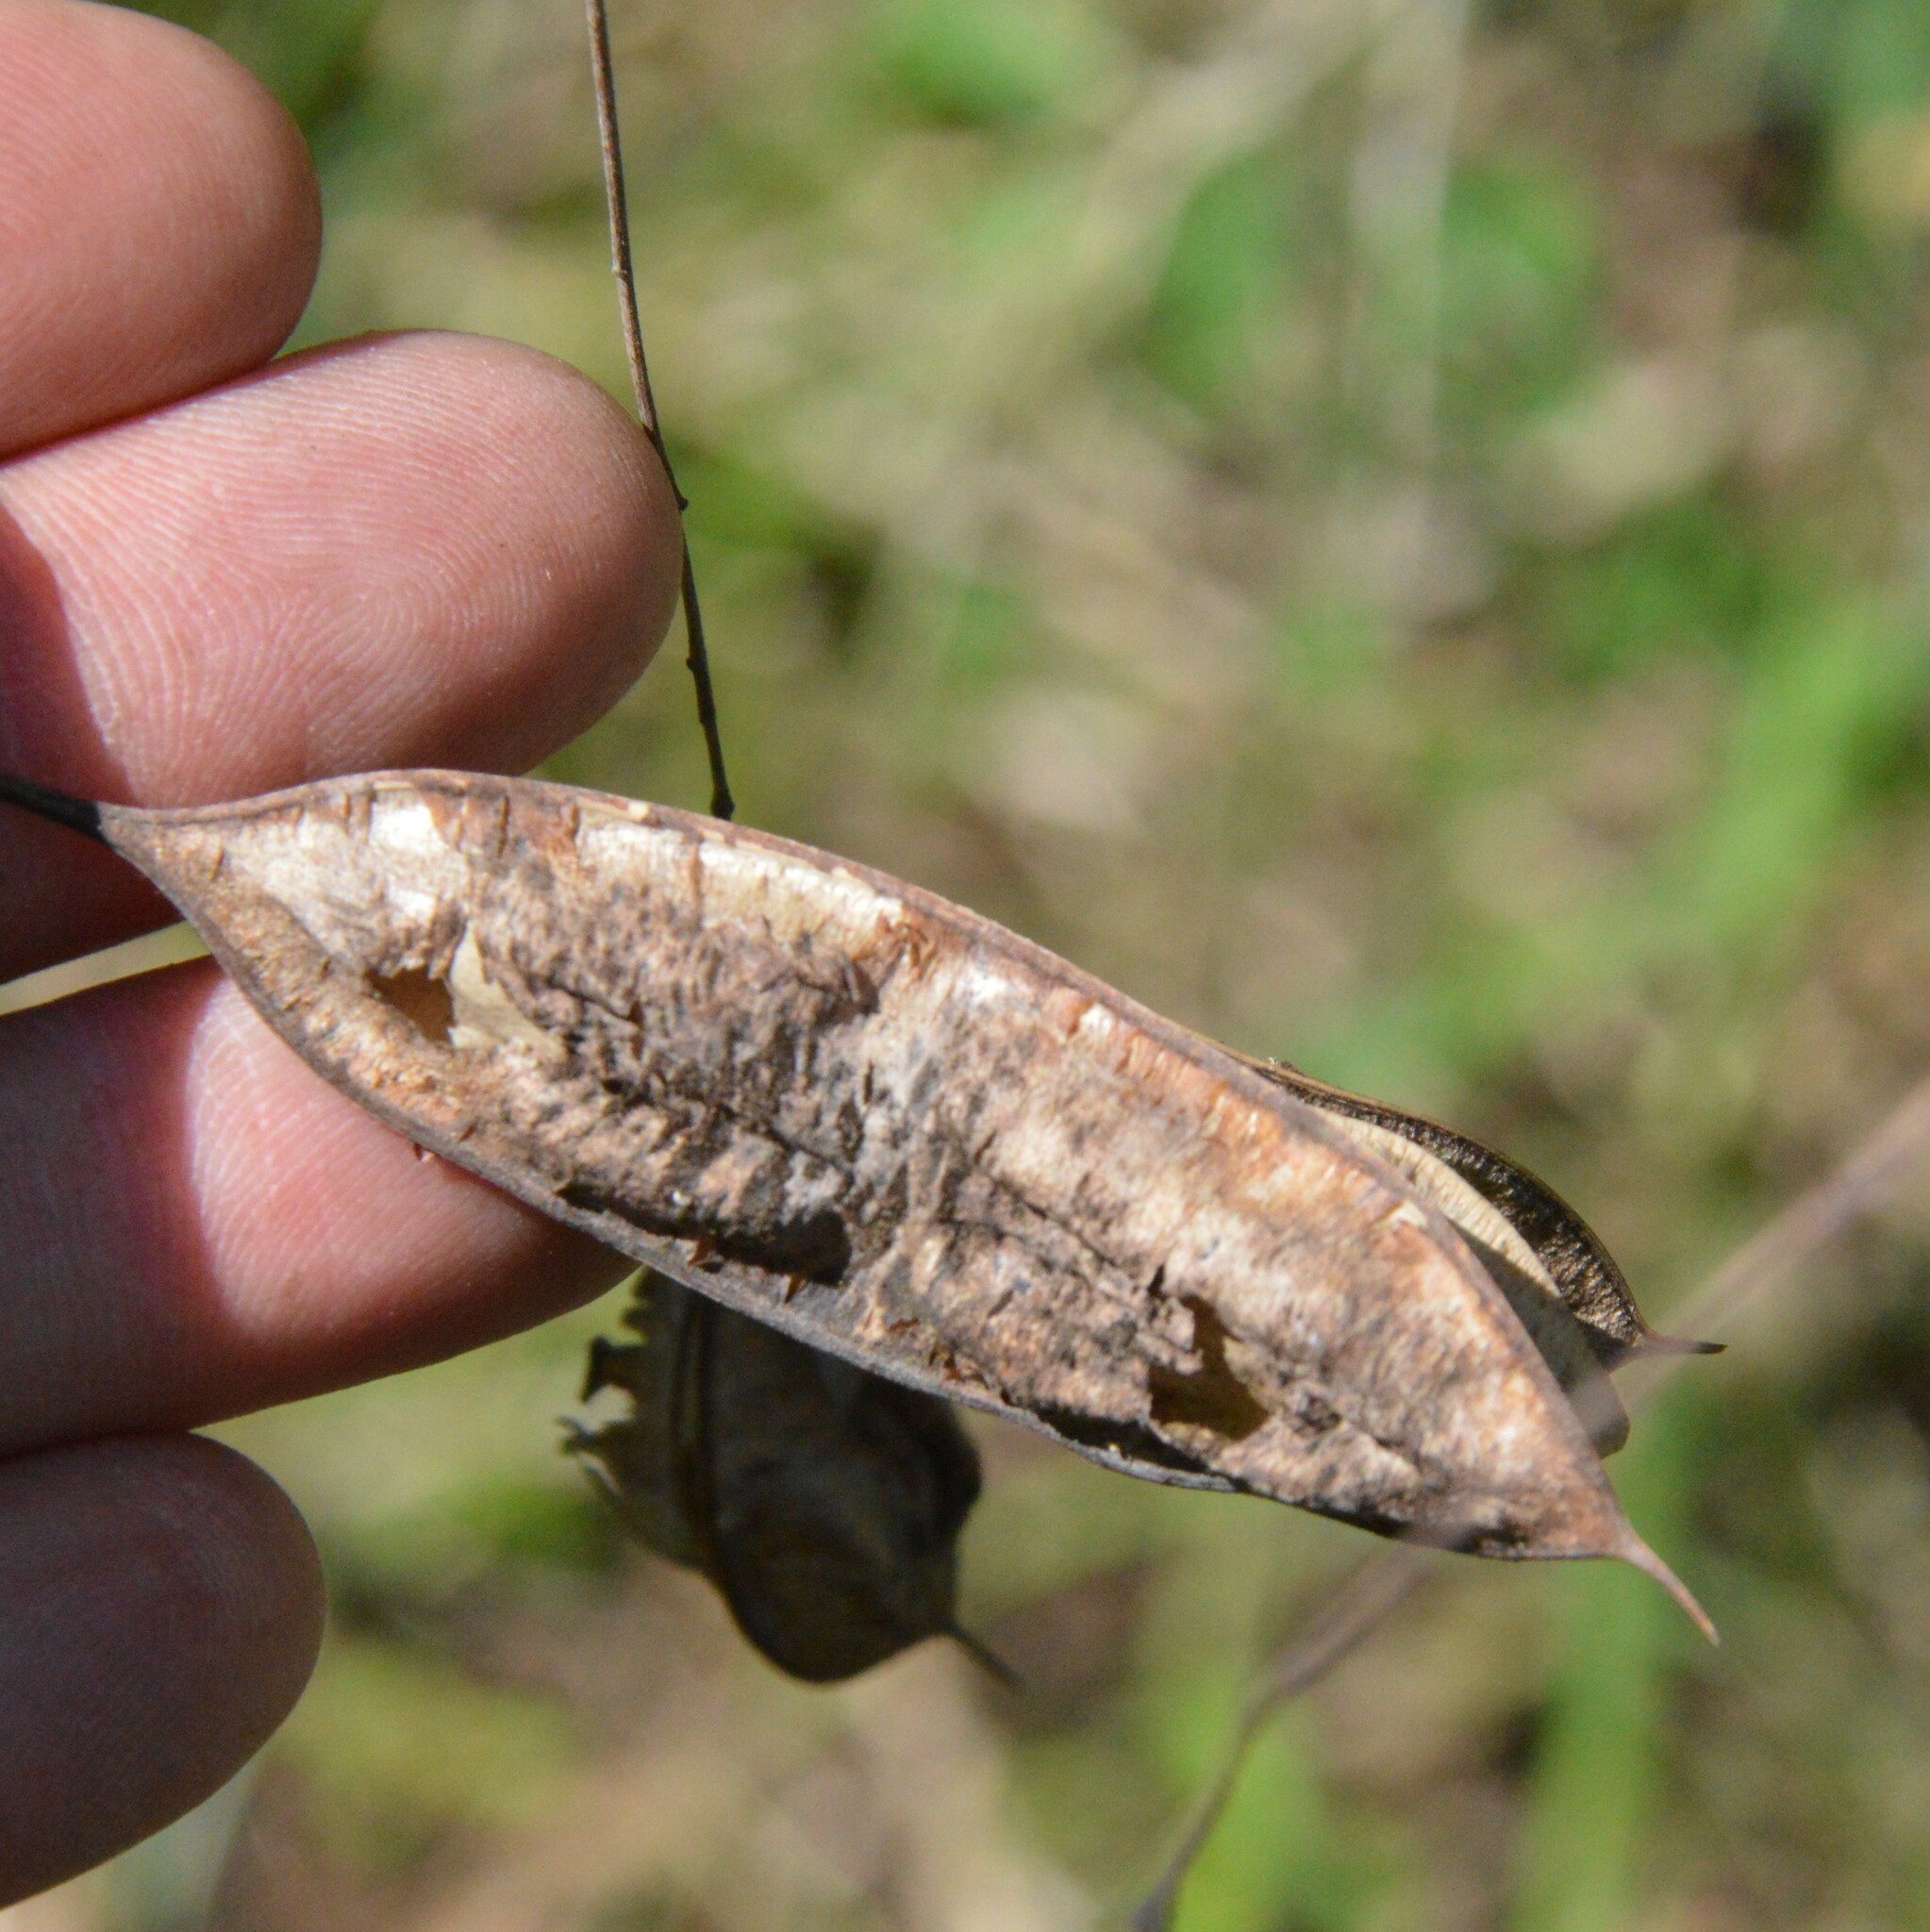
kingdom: Plantae
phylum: Tracheophyta
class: Magnoliopsida
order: Fabales
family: Fabaceae
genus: Sesbania
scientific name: Sesbania vesicaria
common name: Bagpod
